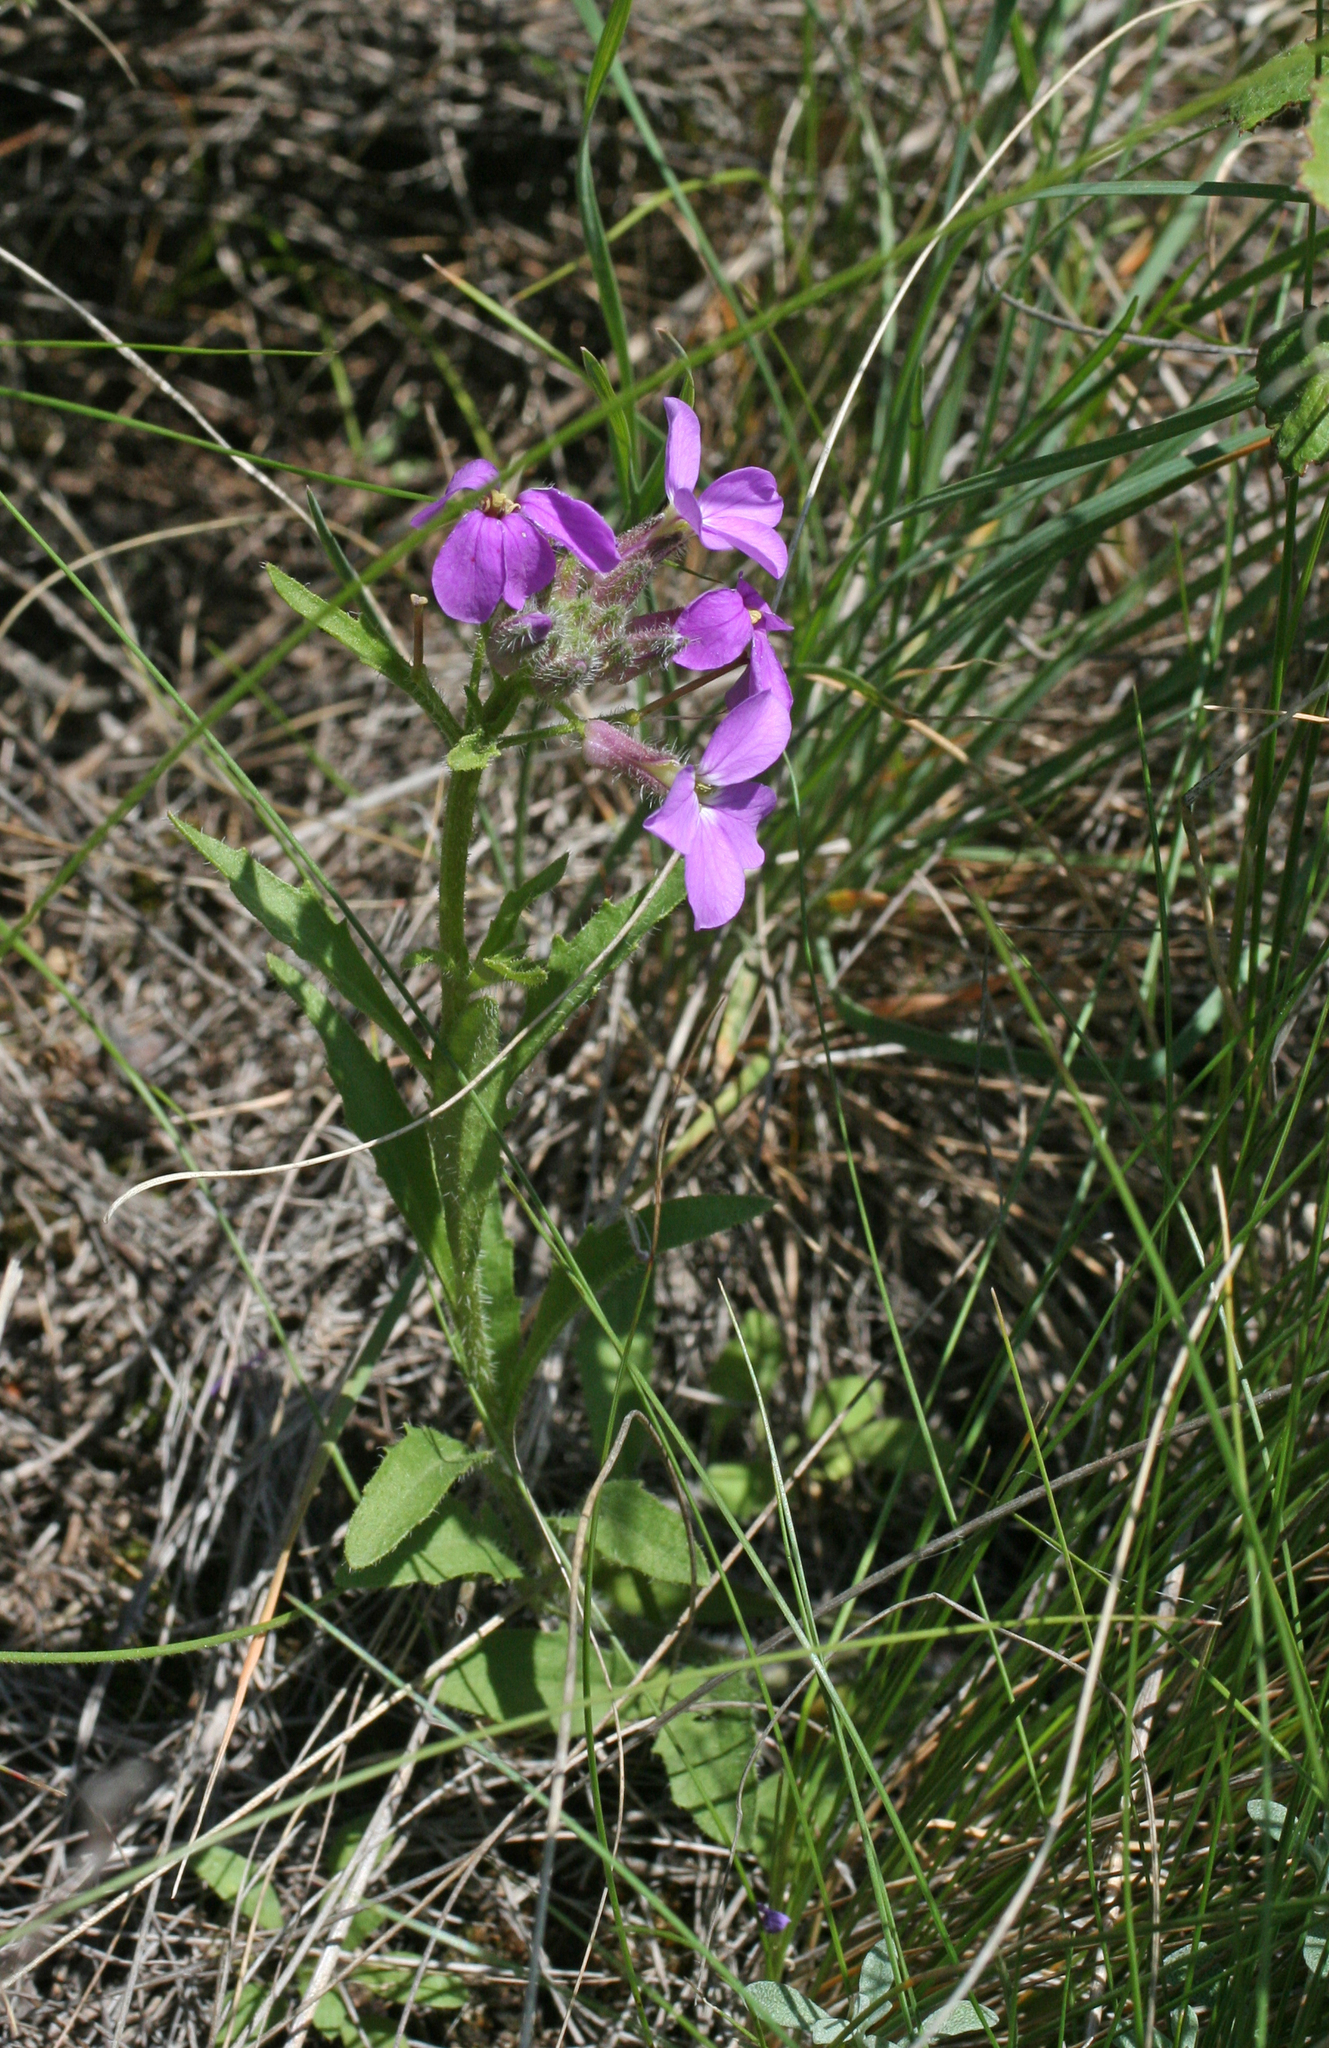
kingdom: Plantae
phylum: Tracheophyta
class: Magnoliopsida
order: Brassicales
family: Brassicaceae
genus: Clausia
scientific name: Clausia aprica
